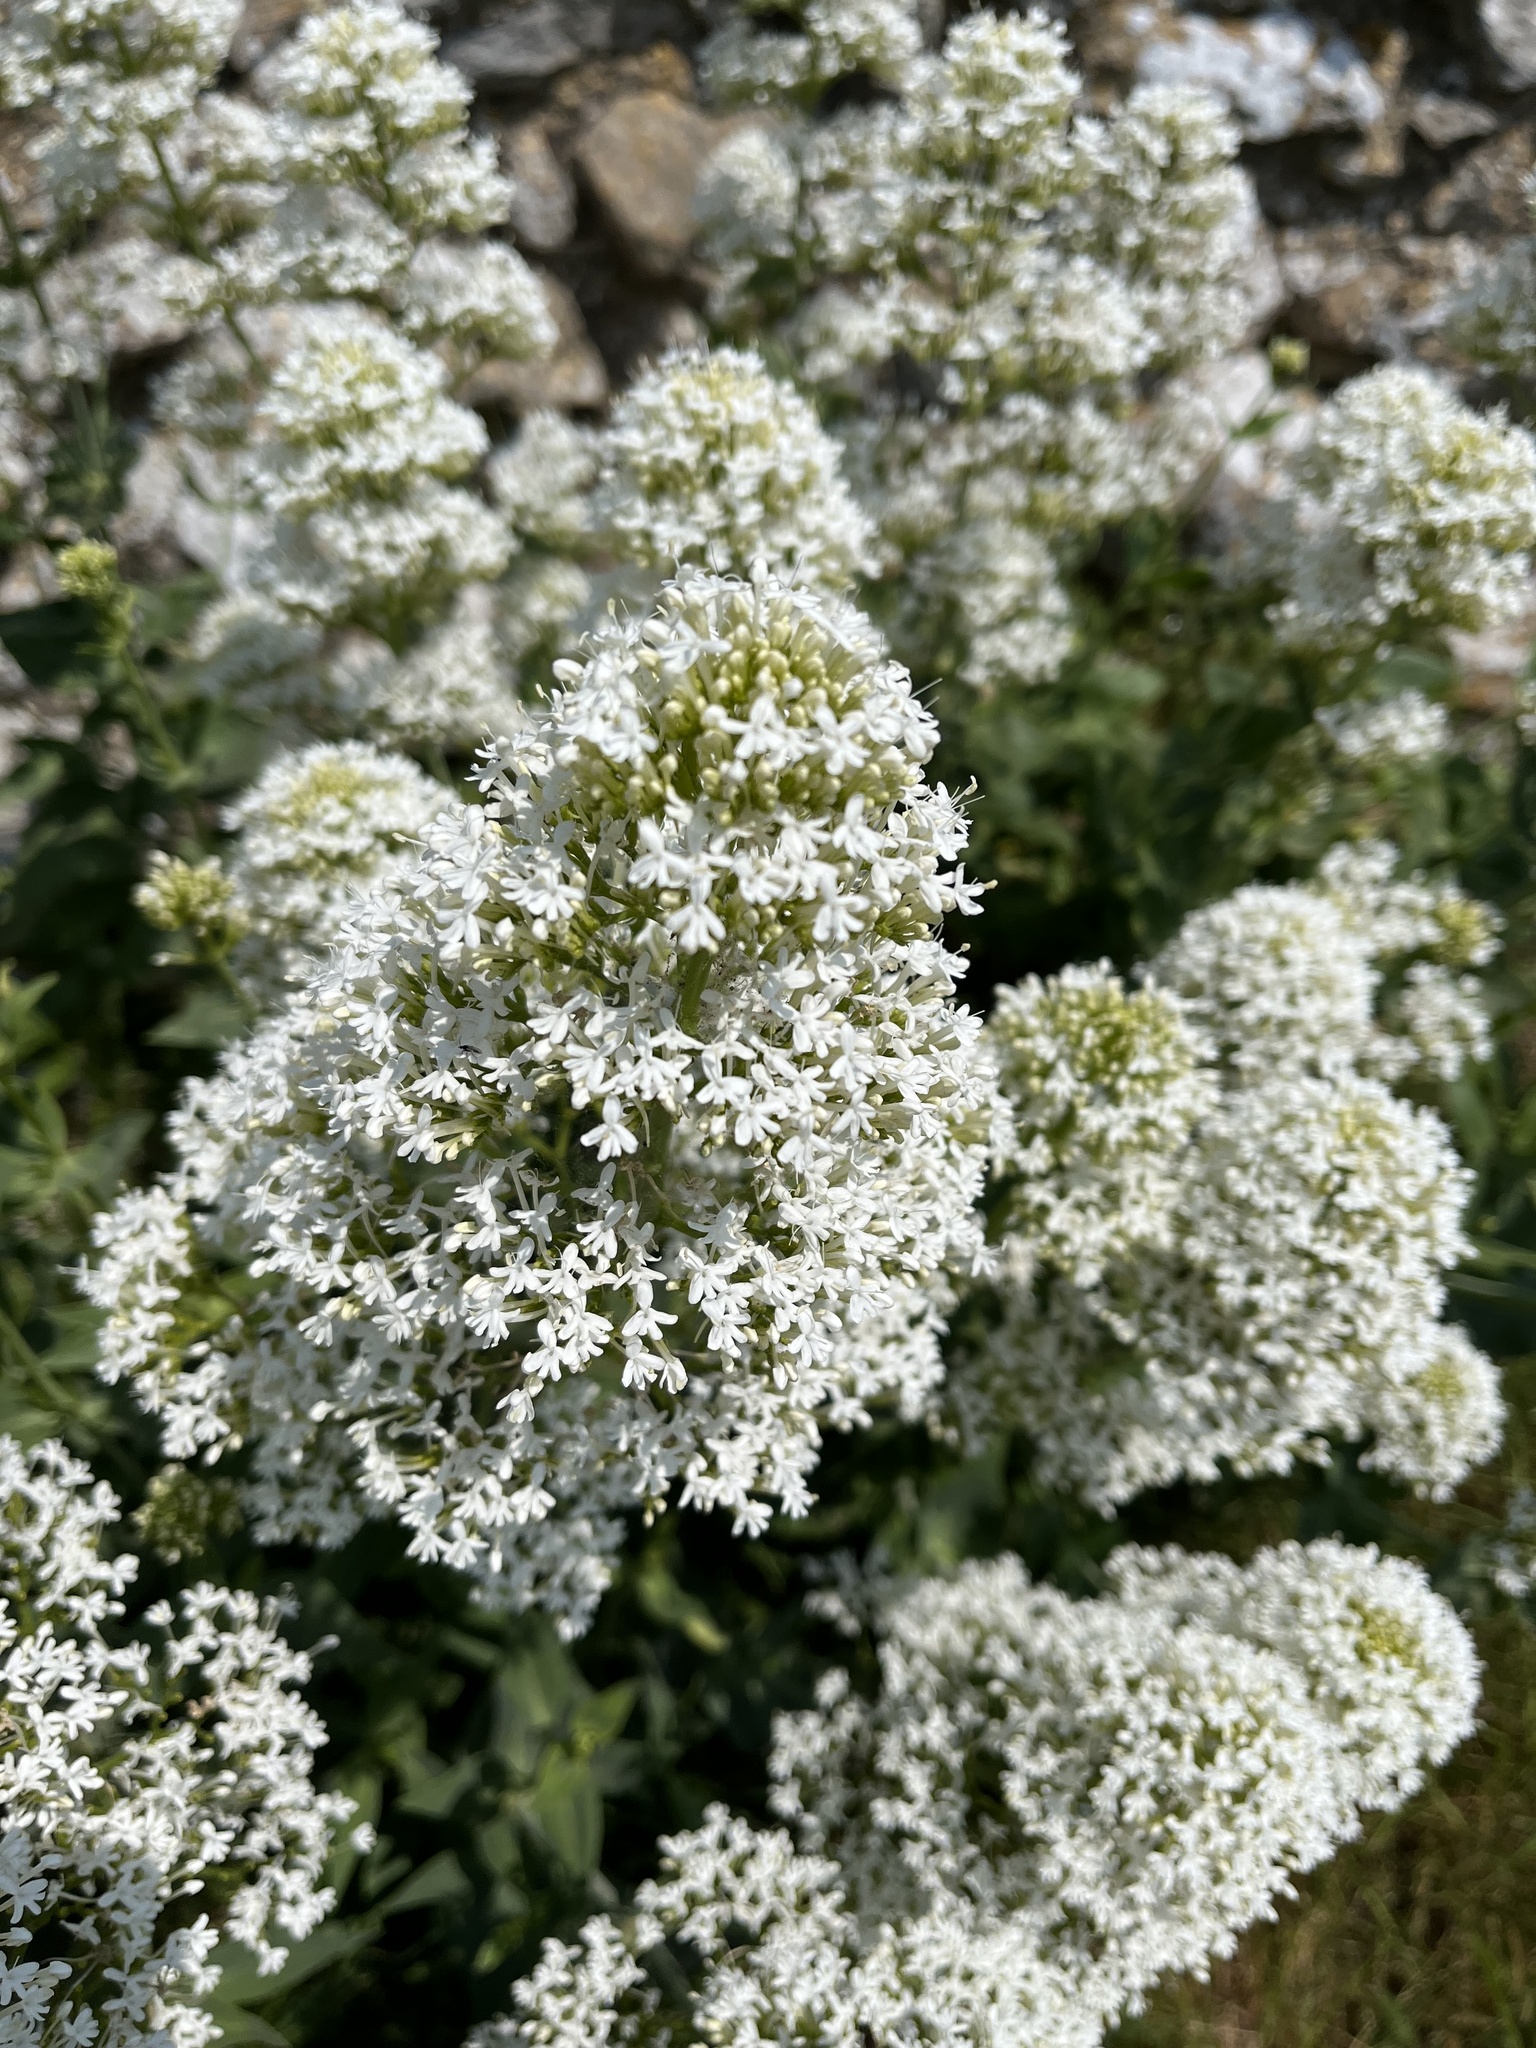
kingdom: Plantae
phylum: Tracheophyta
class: Magnoliopsida
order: Dipsacales
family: Caprifoliaceae
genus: Centranthus
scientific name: Centranthus ruber
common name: Red valerian
